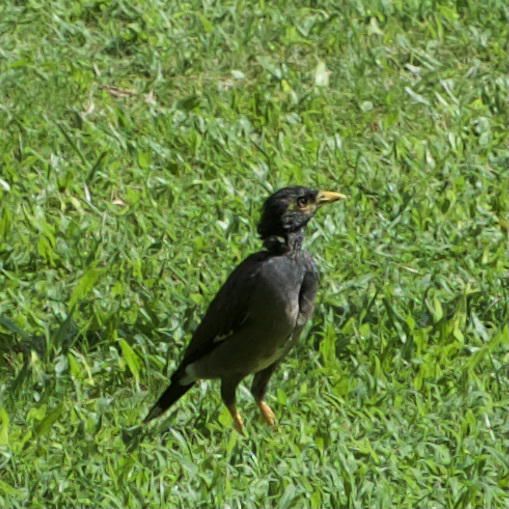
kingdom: Animalia
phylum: Chordata
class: Aves
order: Passeriformes
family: Sturnidae
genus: Acridotheres
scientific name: Acridotheres tristis
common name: Common myna
